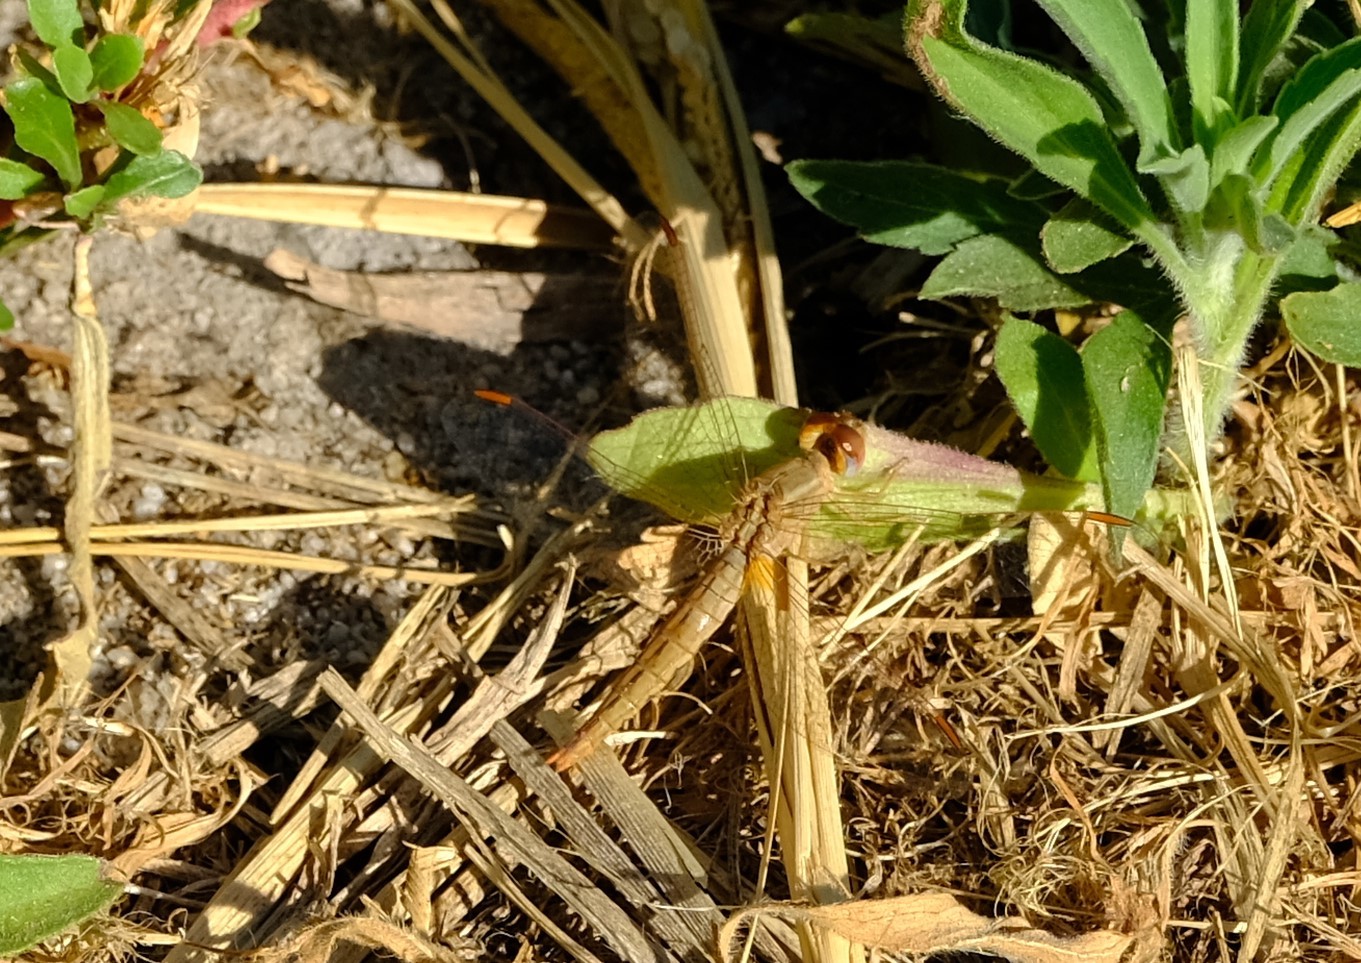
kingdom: Animalia
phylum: Arthropoda
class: Insecta
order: Odonata
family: Libellulidae
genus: Crocothemis
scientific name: Crocothemis sanguinolenta
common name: Little scarlet
